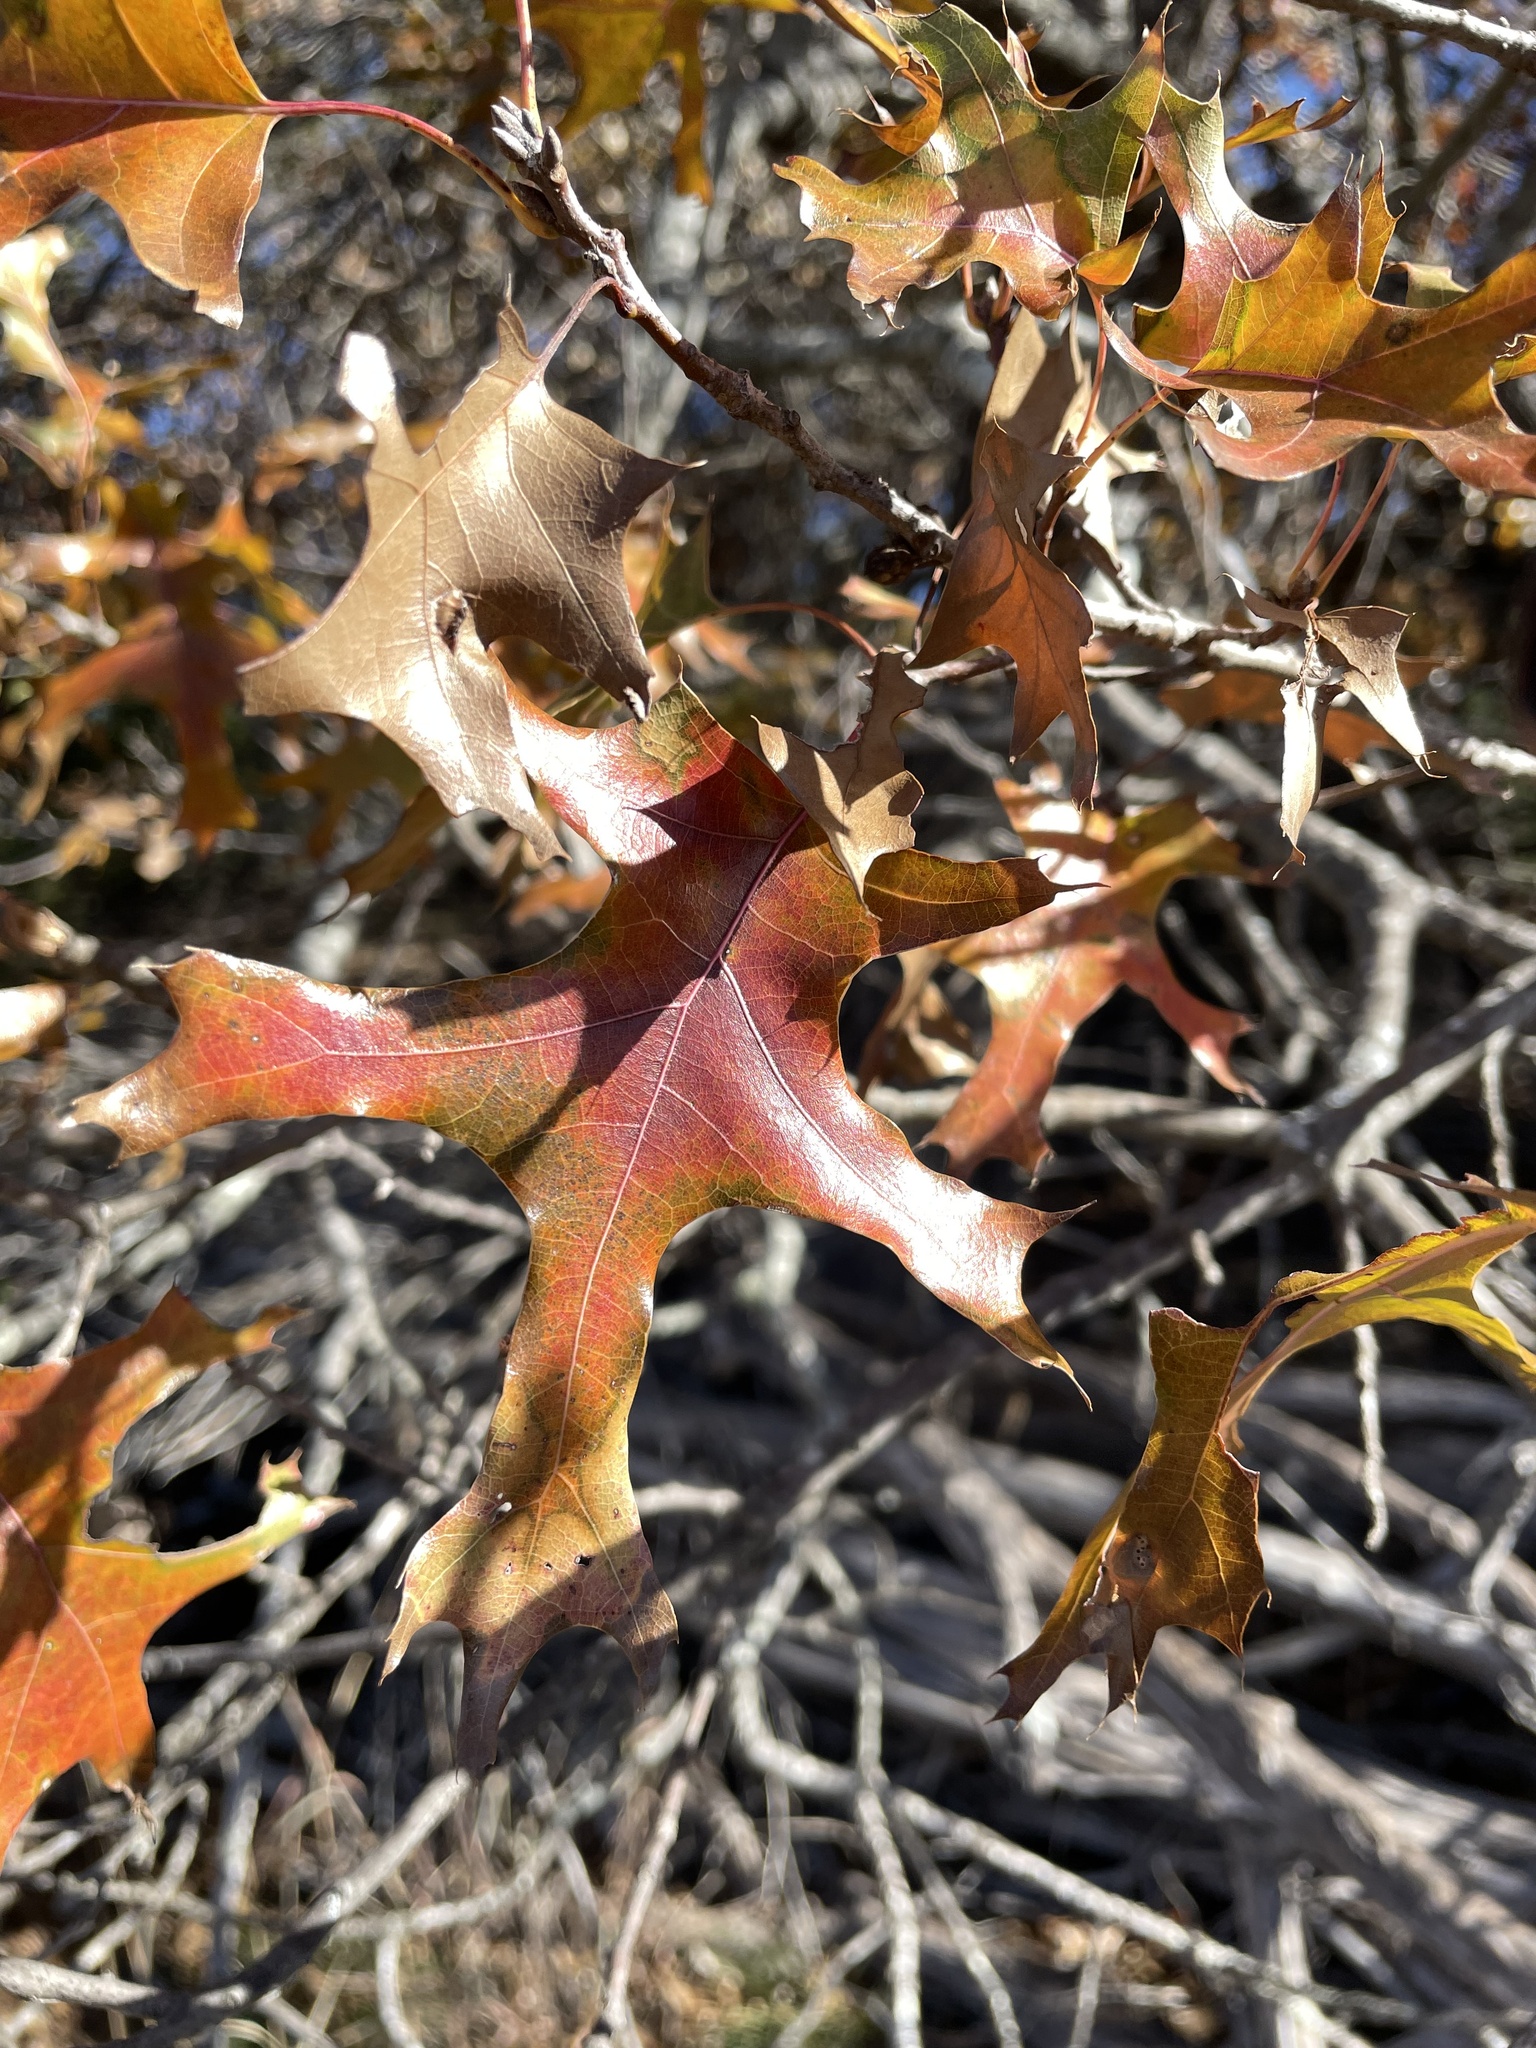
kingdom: Plantae
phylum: Tracheophyta
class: Magnoliopsida
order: Fagales
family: Fagaceae
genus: Quercus
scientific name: Quercus buckleyi
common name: Buckley oak
